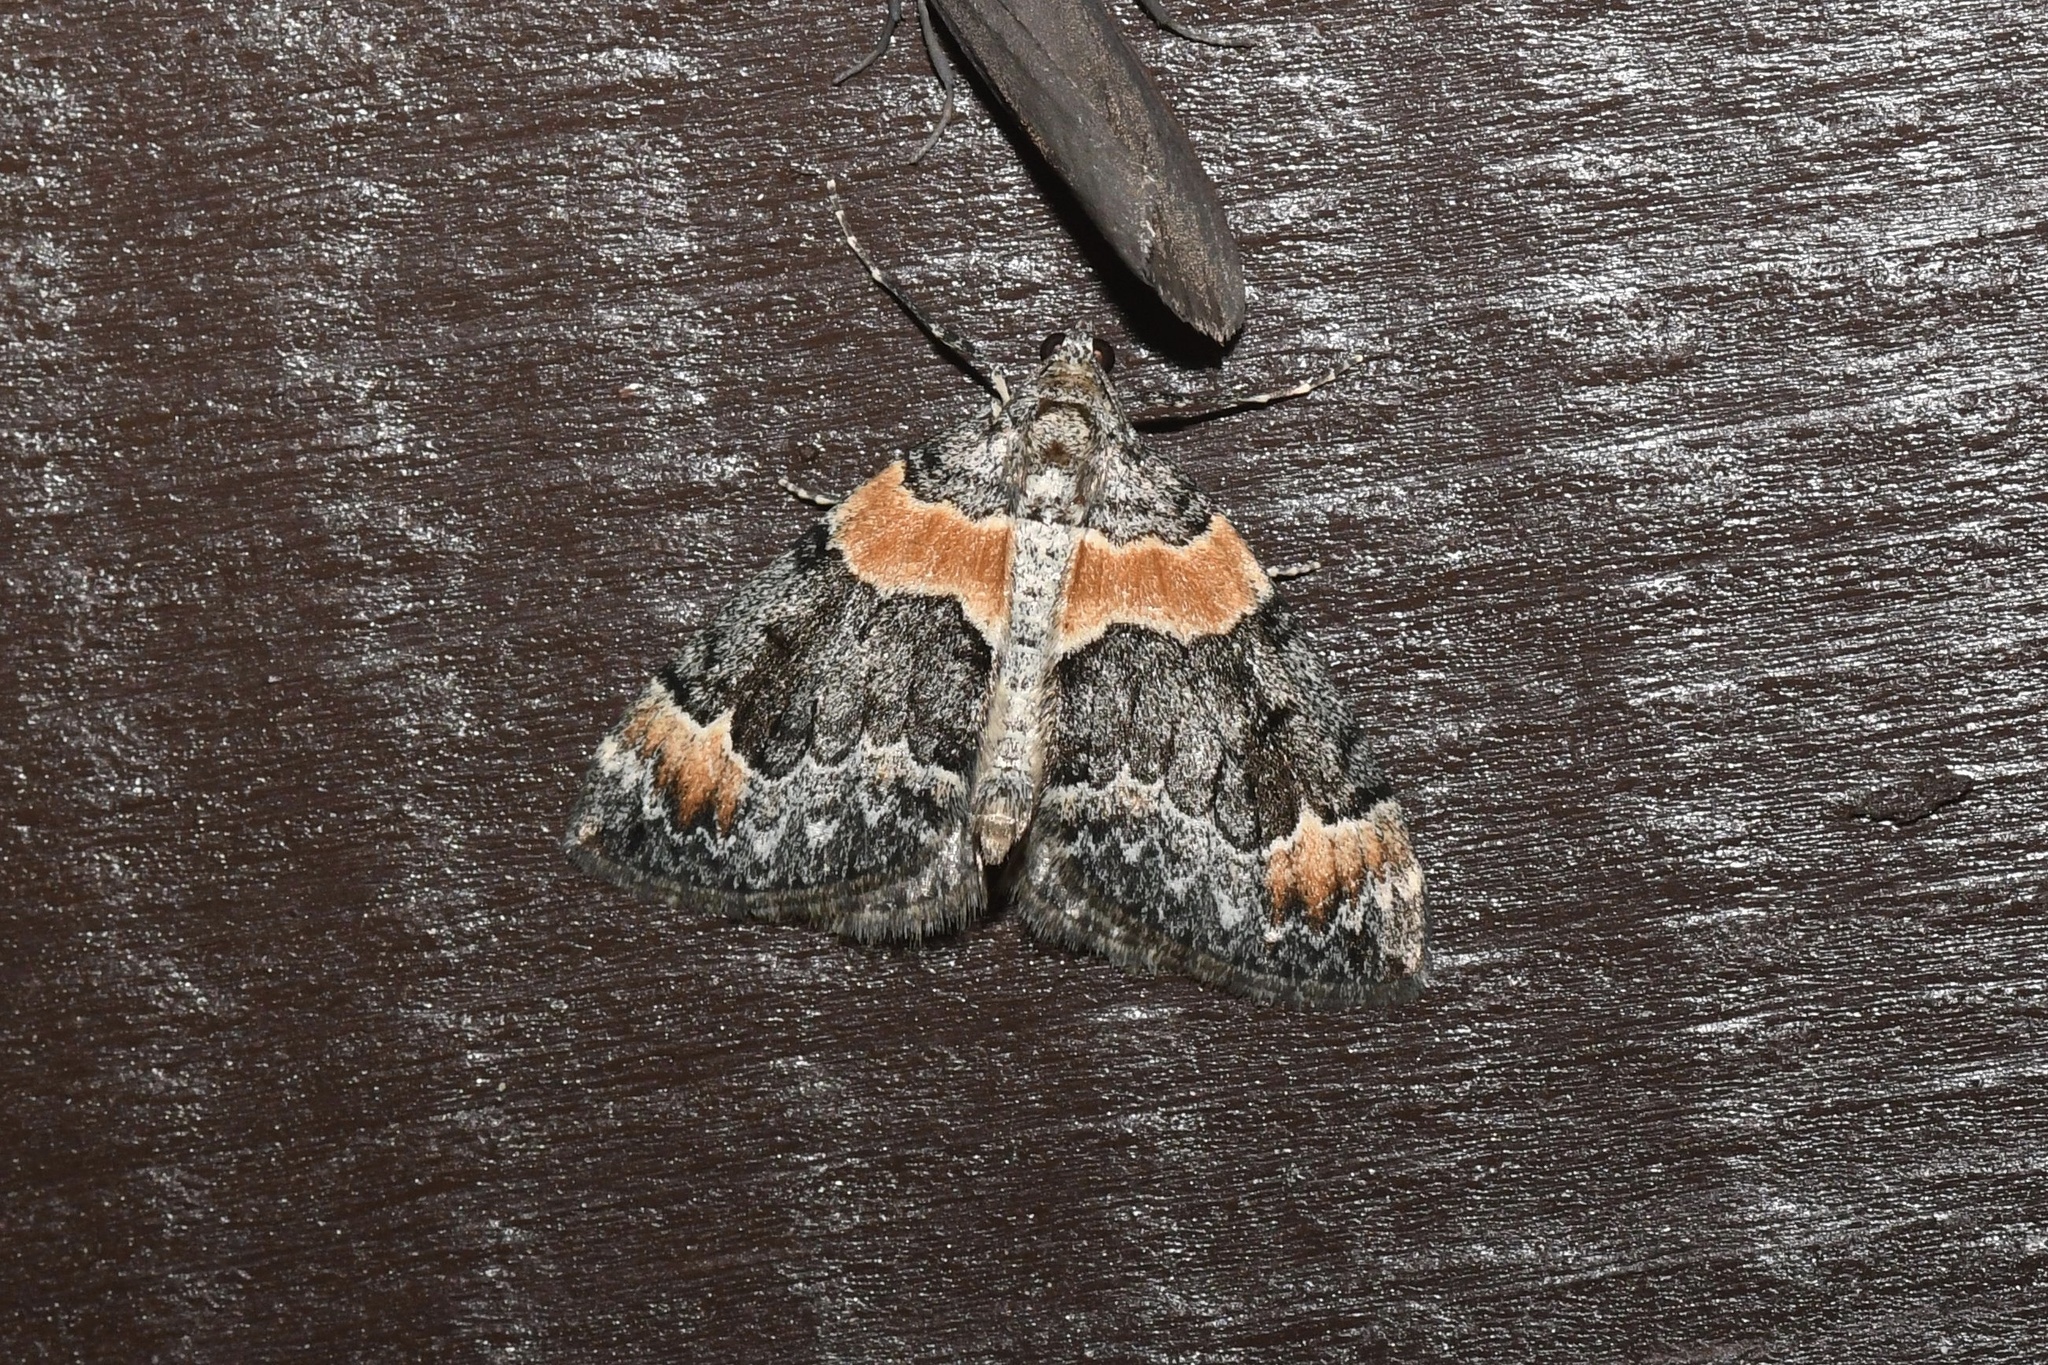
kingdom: Animalia
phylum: Arthropoda
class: Insecta
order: Lepidoptera
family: Geometridae
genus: Dysstroma
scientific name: Dysstroma hersiliata
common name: Orange-barred carpet
